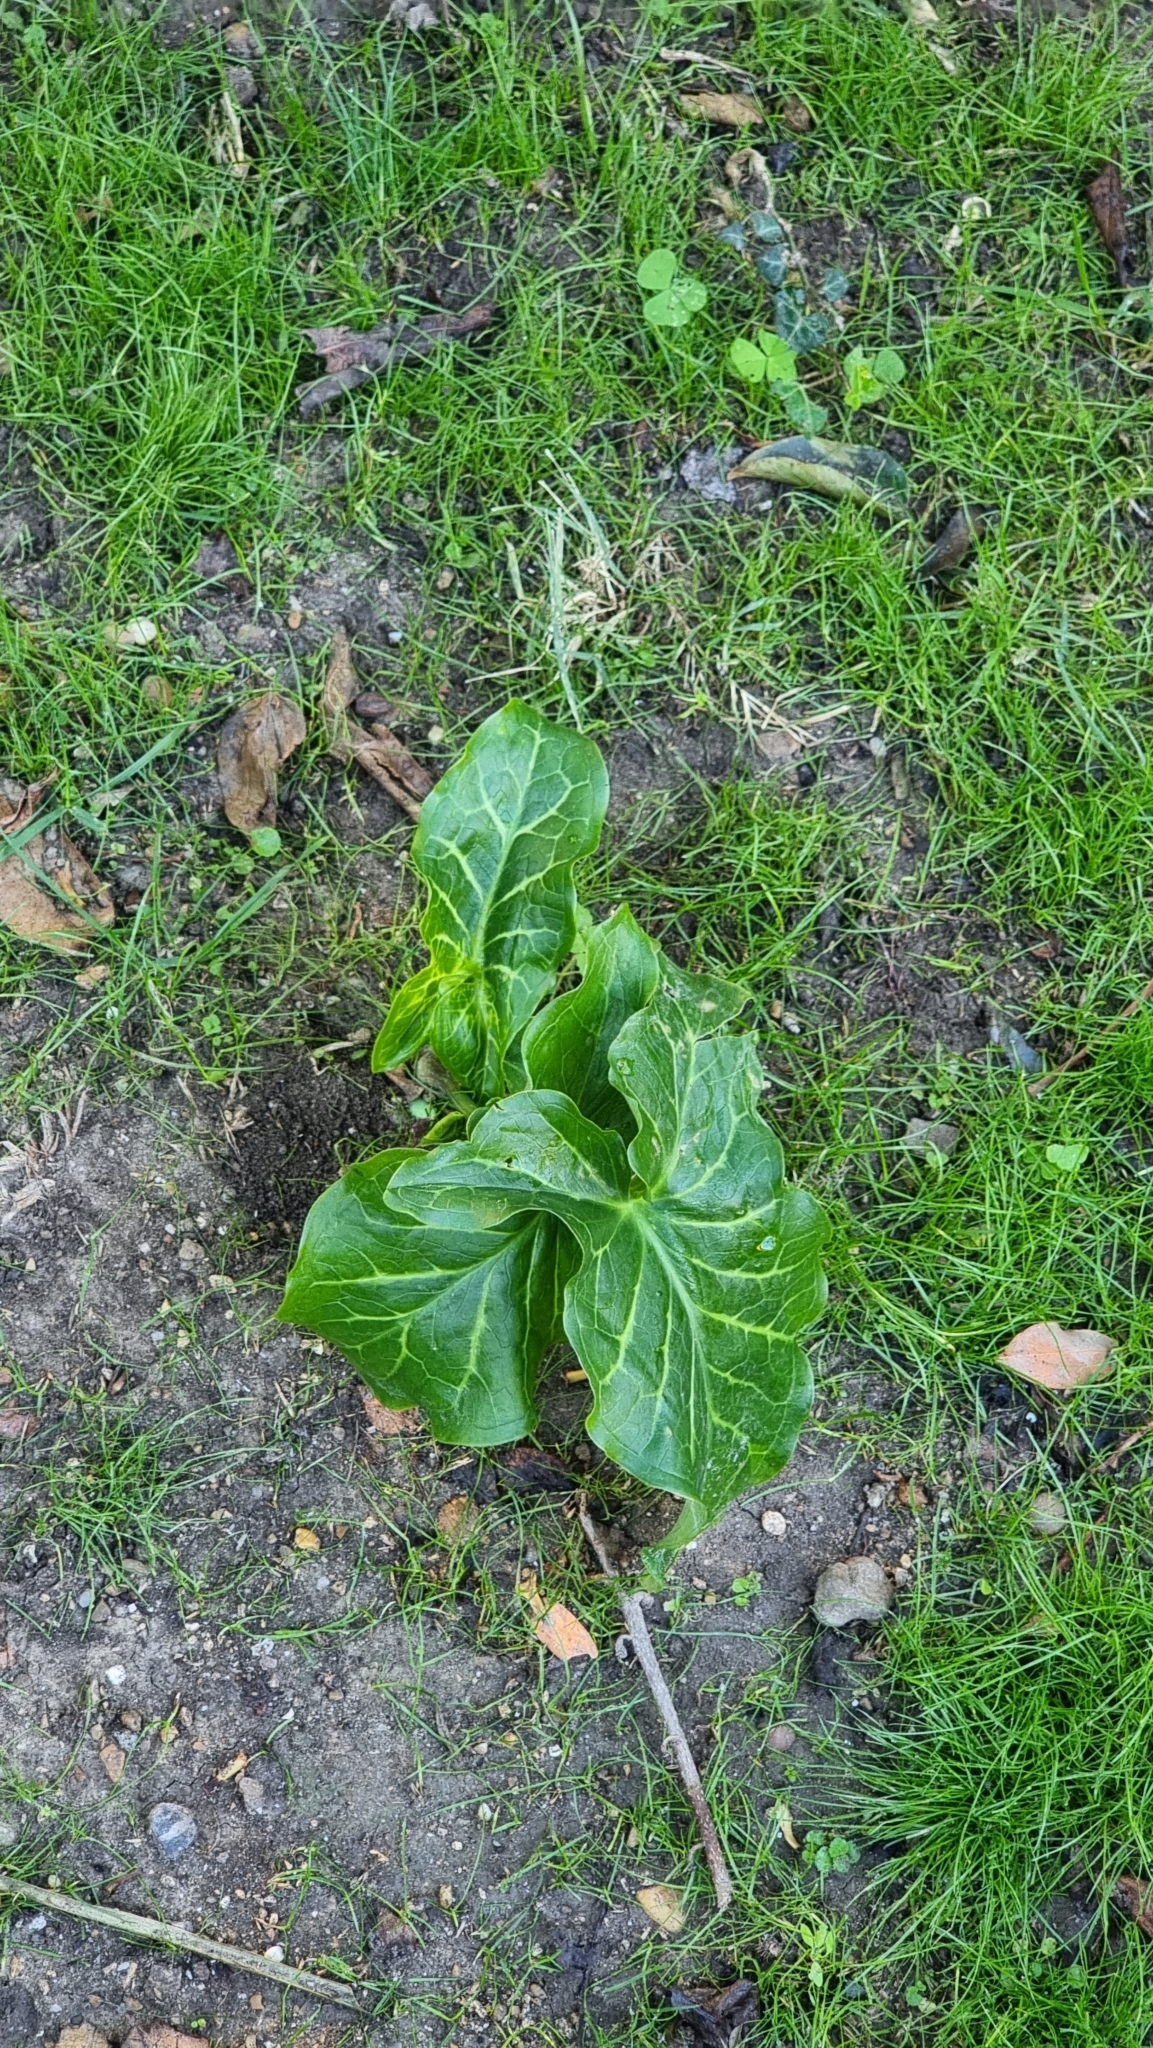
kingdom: Plantae
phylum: Tracheophyta
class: Liliopsida
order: Alismatales
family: Araceae
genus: Arum
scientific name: Arum italicum
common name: Italian lords-and-ladies
